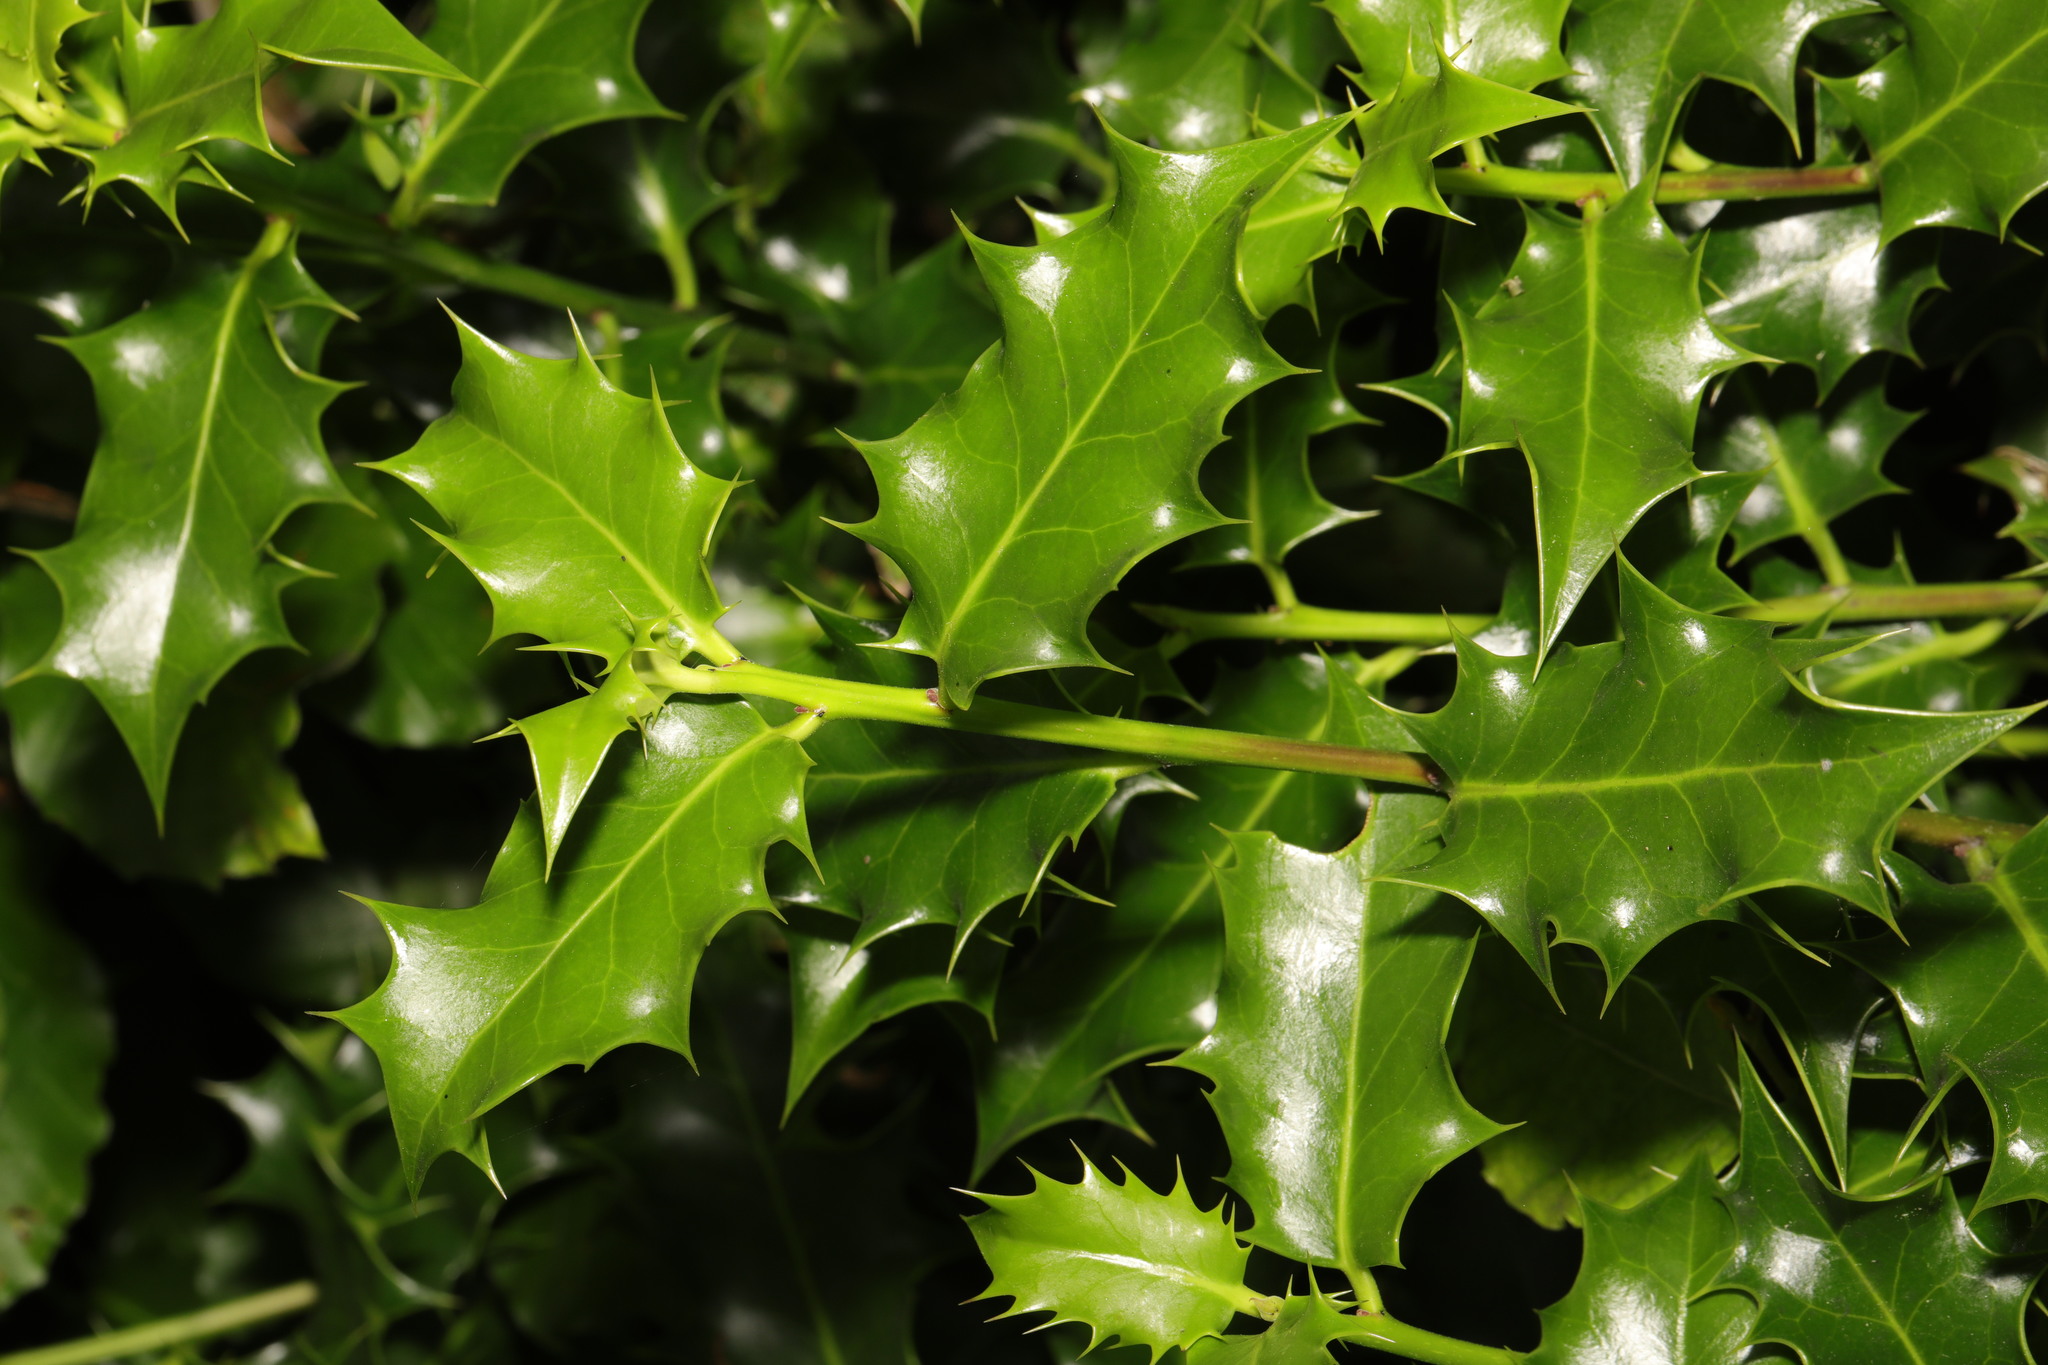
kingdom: Plantae
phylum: Tracheophyta
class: Magnoliopsida
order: Aquifoliales
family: Aquifoliaceae
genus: Ilex
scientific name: Ilex aquifolium
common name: English holly
